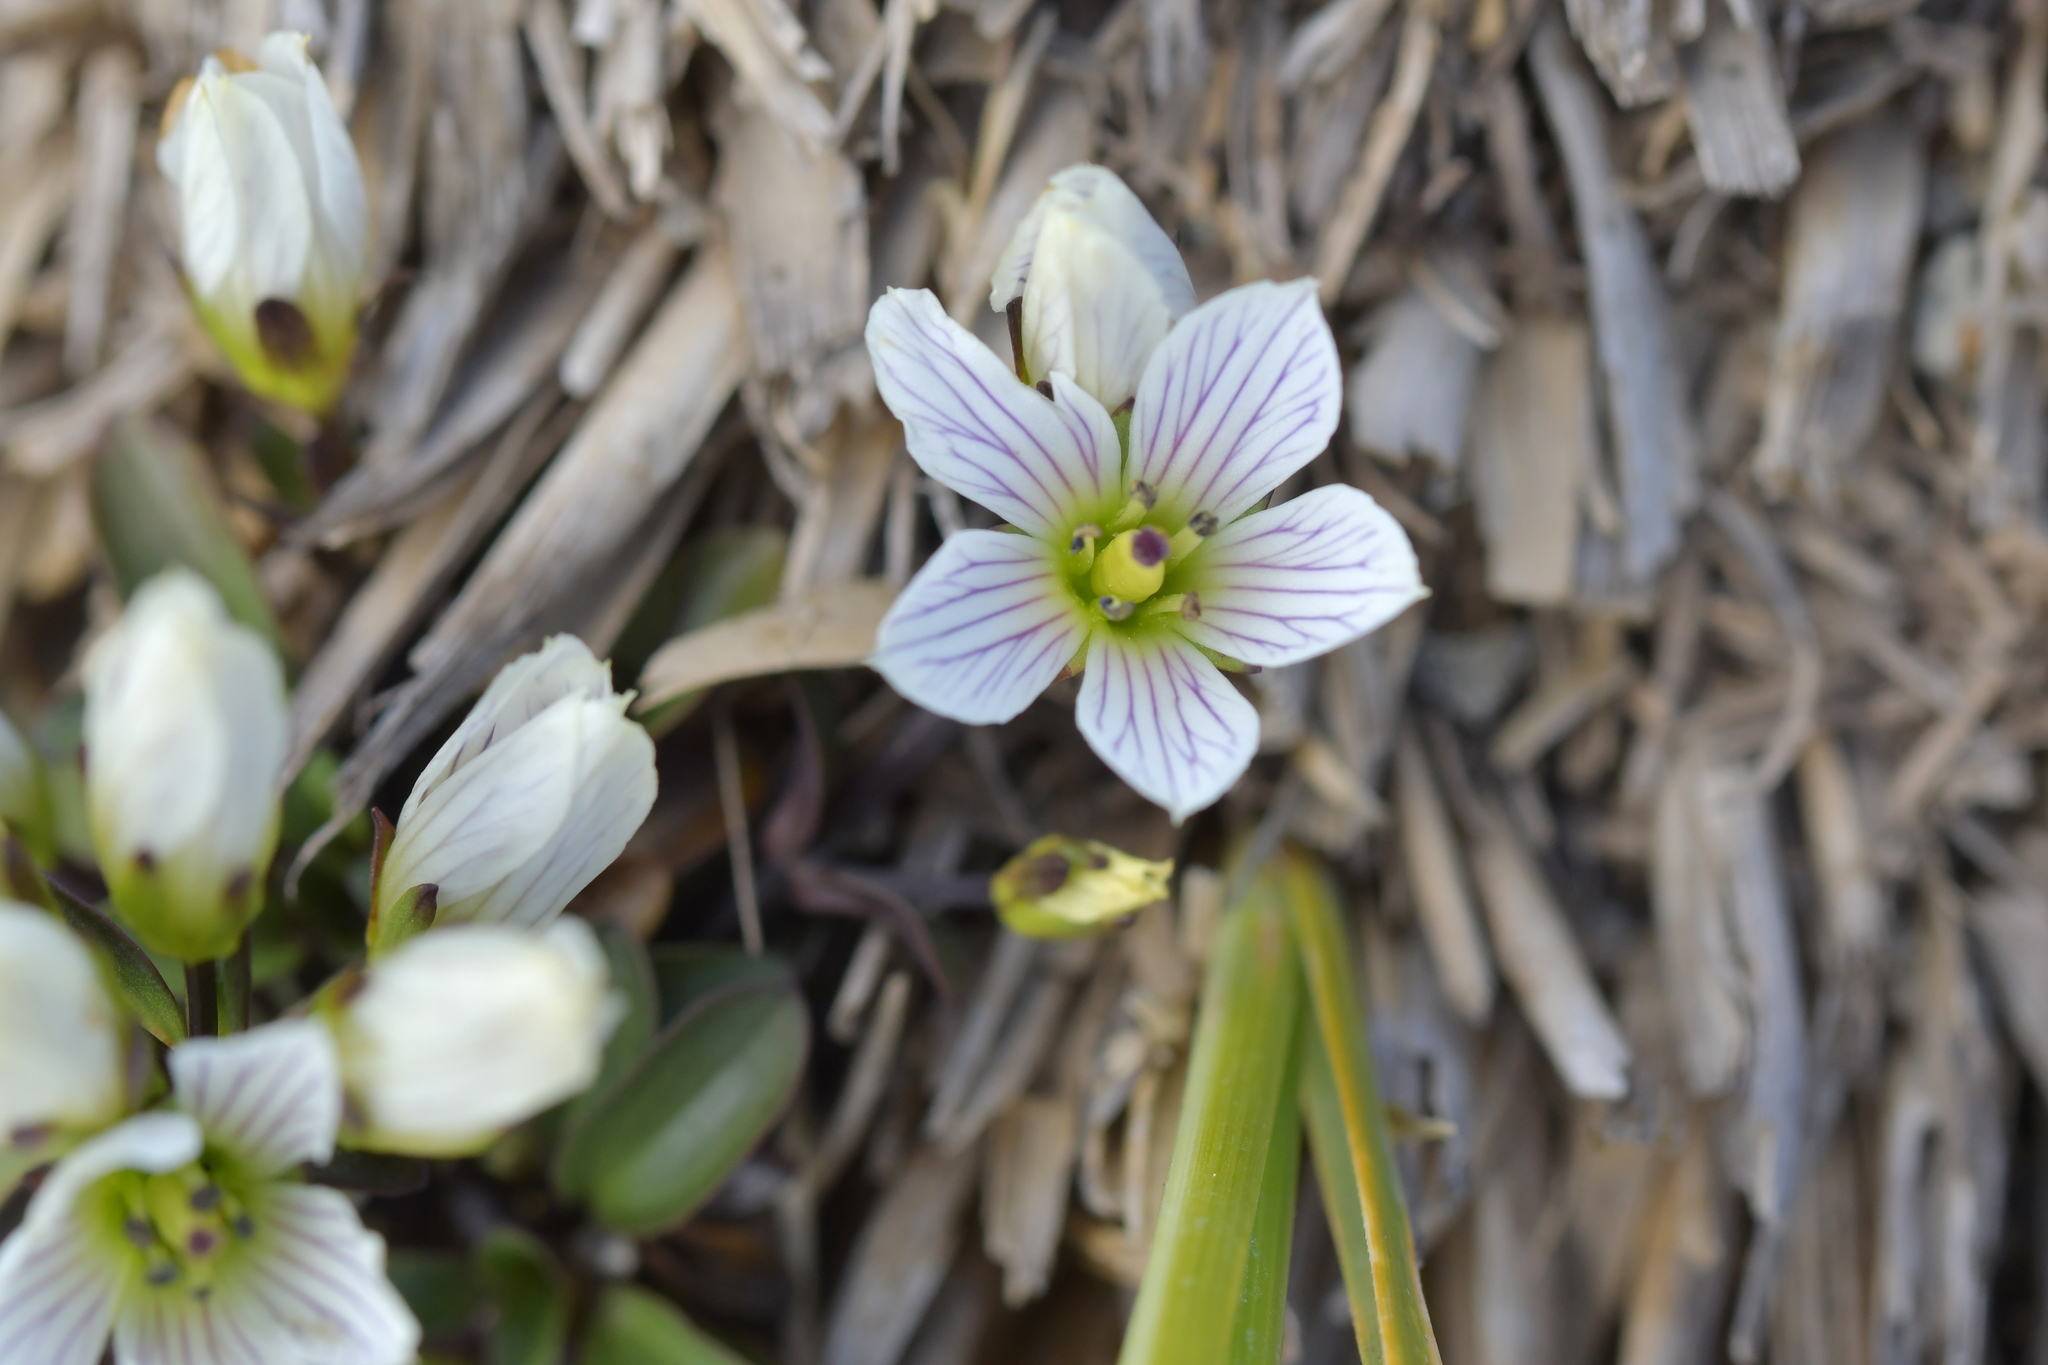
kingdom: Plantae
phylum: Tracheophyta
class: Magnoliopsida
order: Gentianales
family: Gentianaceae
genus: Gentianella
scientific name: Gentianella montana
